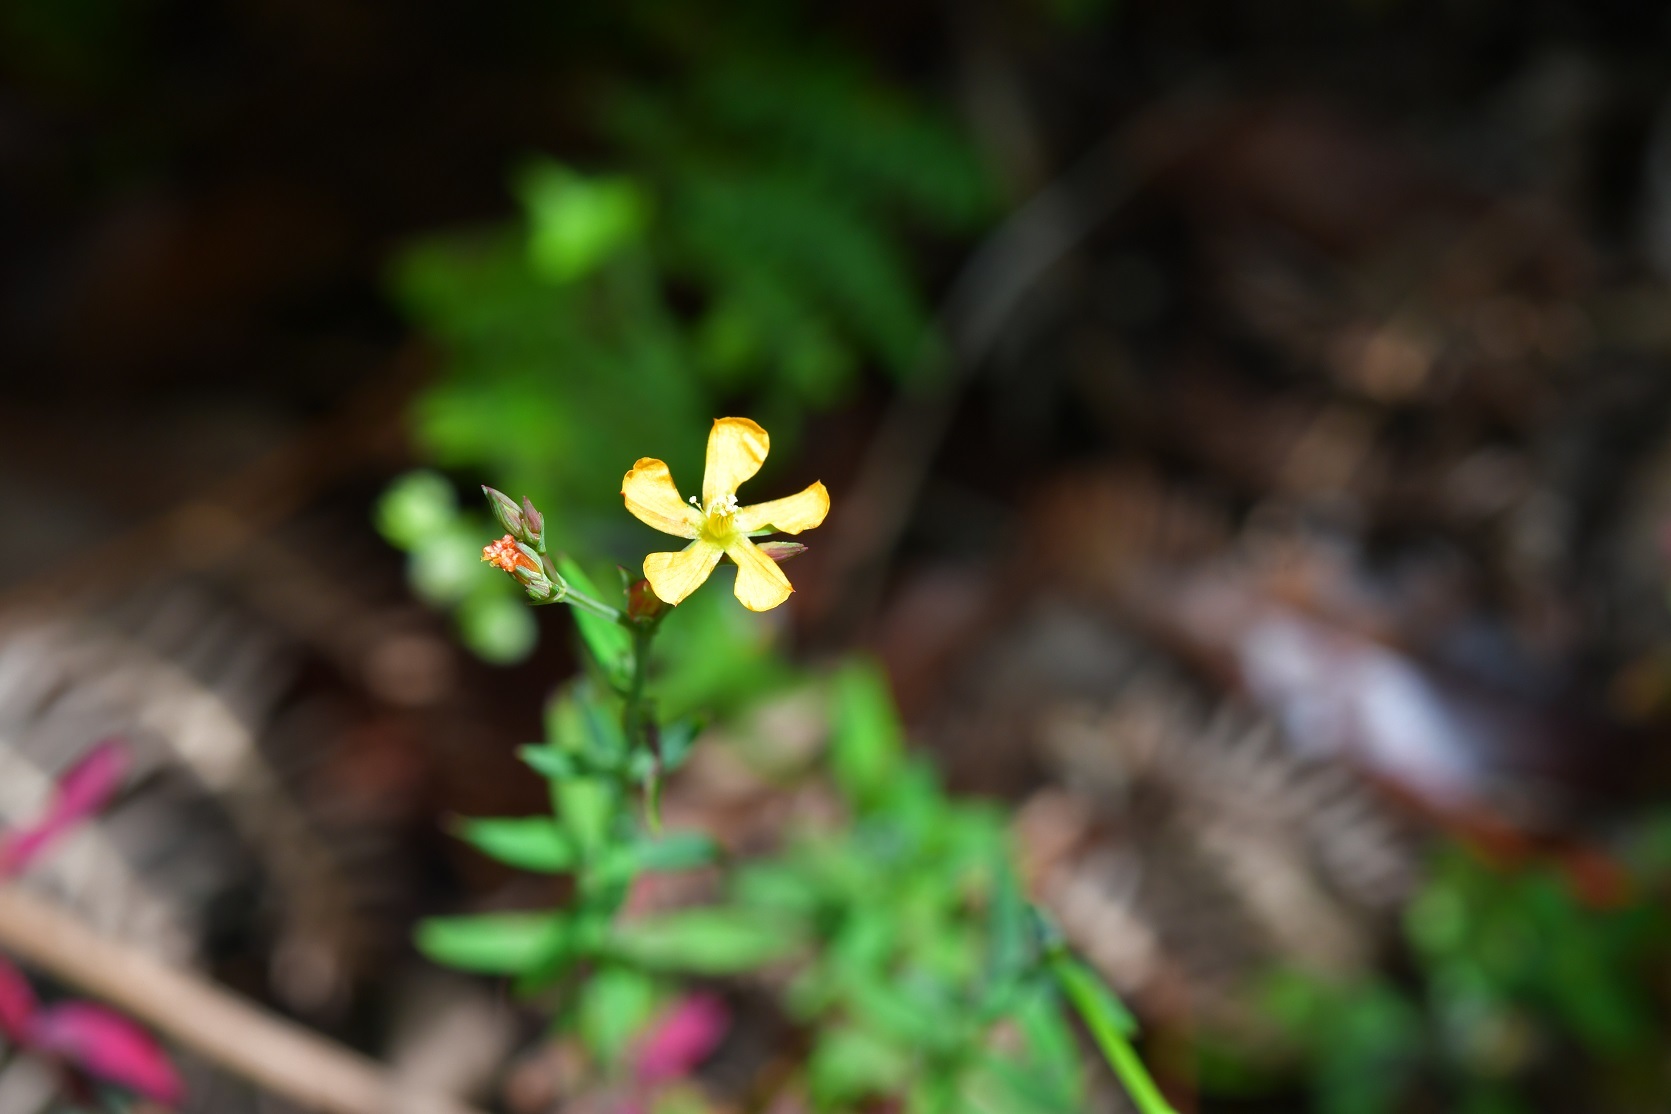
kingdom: Plantae
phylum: Tracheophyta
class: Magnoliopsida
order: Malpighiales
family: Hypericaceae
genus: Hypericum
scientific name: Hypericum silenoides
